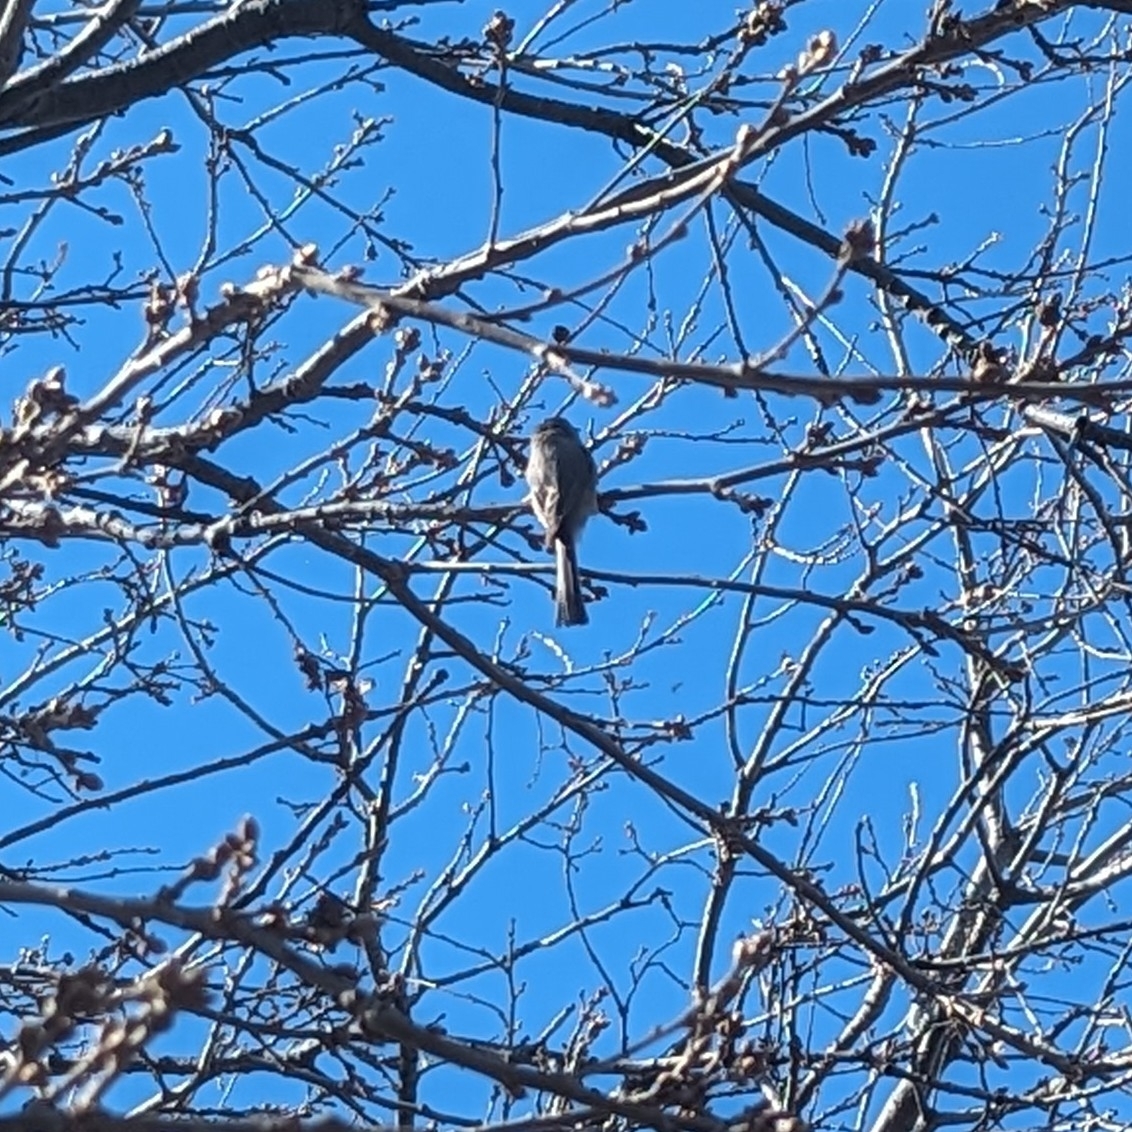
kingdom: Animalia
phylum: Chordata
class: Aves
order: Passeriformes
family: Aegithalidae
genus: Psaltriparus
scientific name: Psaltriparus minimus
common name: American bushtit
